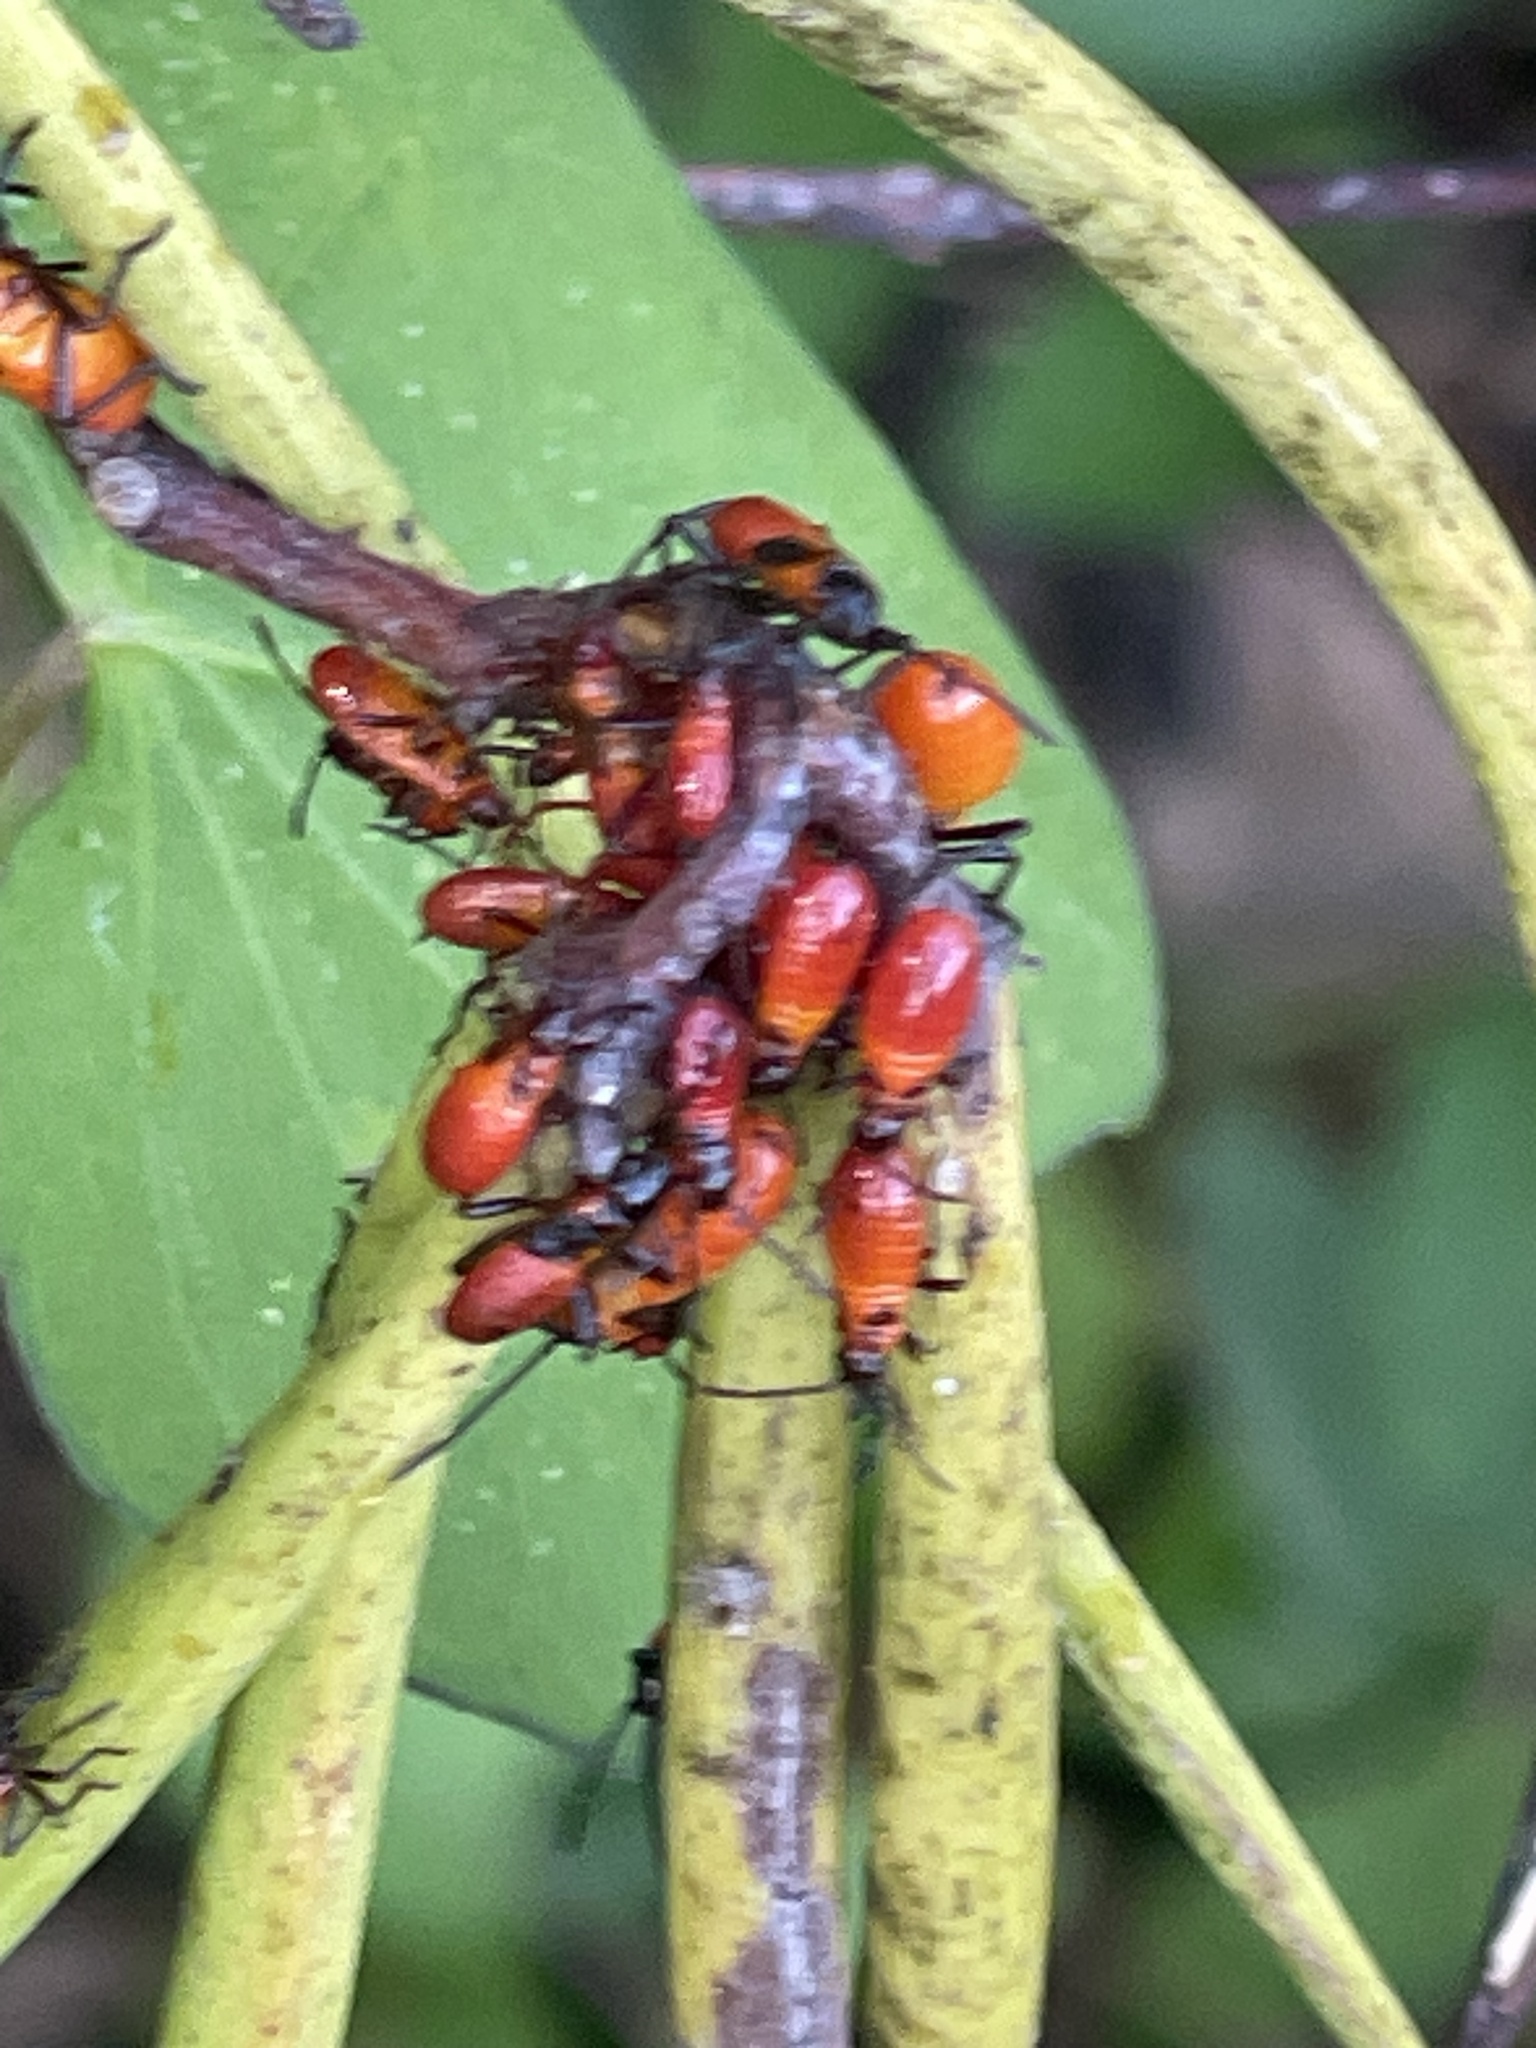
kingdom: Animalia
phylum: Arthropoda
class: Insecta
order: Hemiptera
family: Lygaeidae
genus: Oncopeltus
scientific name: Oncopeltus fasciatus
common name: Large milkweed bug
